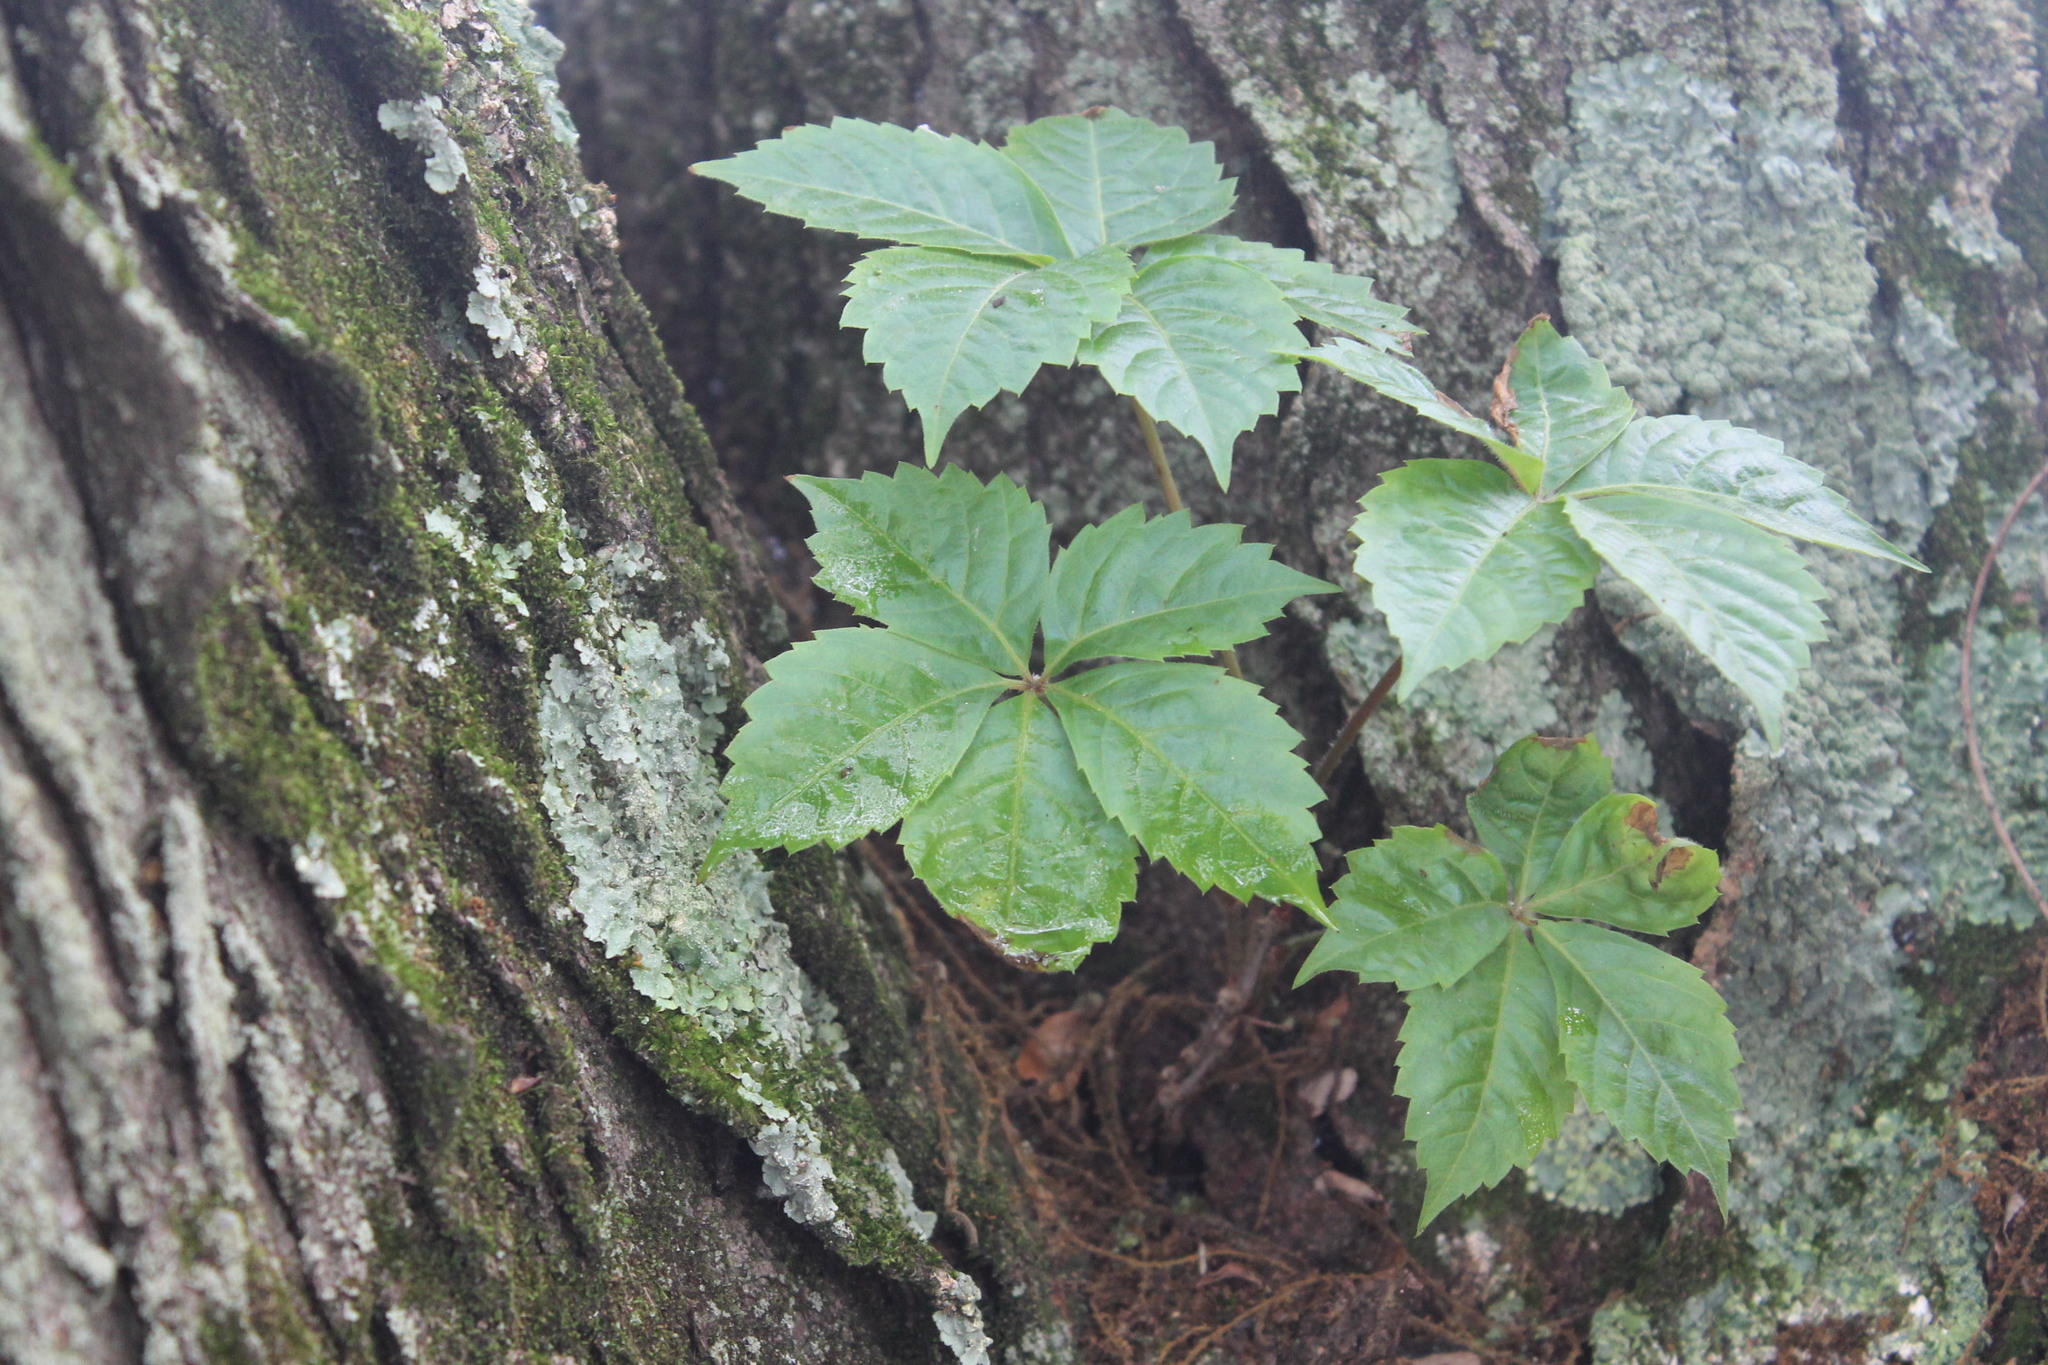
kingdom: Plantae
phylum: Tracheophyta
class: Magnoliopsida
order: Vitales
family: Vitaceae
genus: Parthenocissus
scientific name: Parthenocissus quinquefolia
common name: Virginia-creeper
